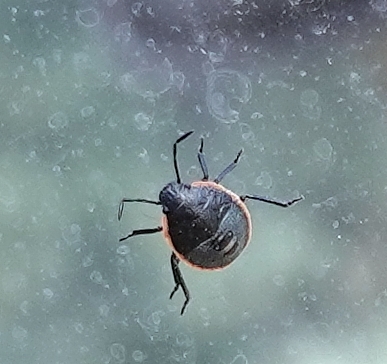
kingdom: Animalia
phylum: Arthropoda
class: Insecta
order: Hemiptera
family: Pentatomidae
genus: Chlorochroa
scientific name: Chlorochroa ligata
